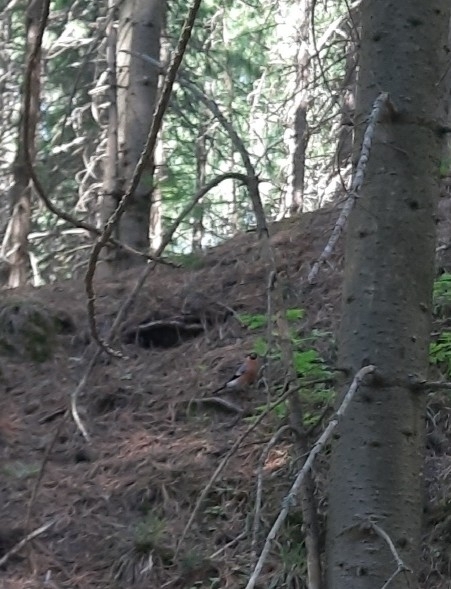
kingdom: Animalia
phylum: Chordata
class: Aves
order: Passeriformes
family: Fringillidae
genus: Pyrrhula
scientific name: Pyrrhula pyrrhula
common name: Eurasian bullfinch
